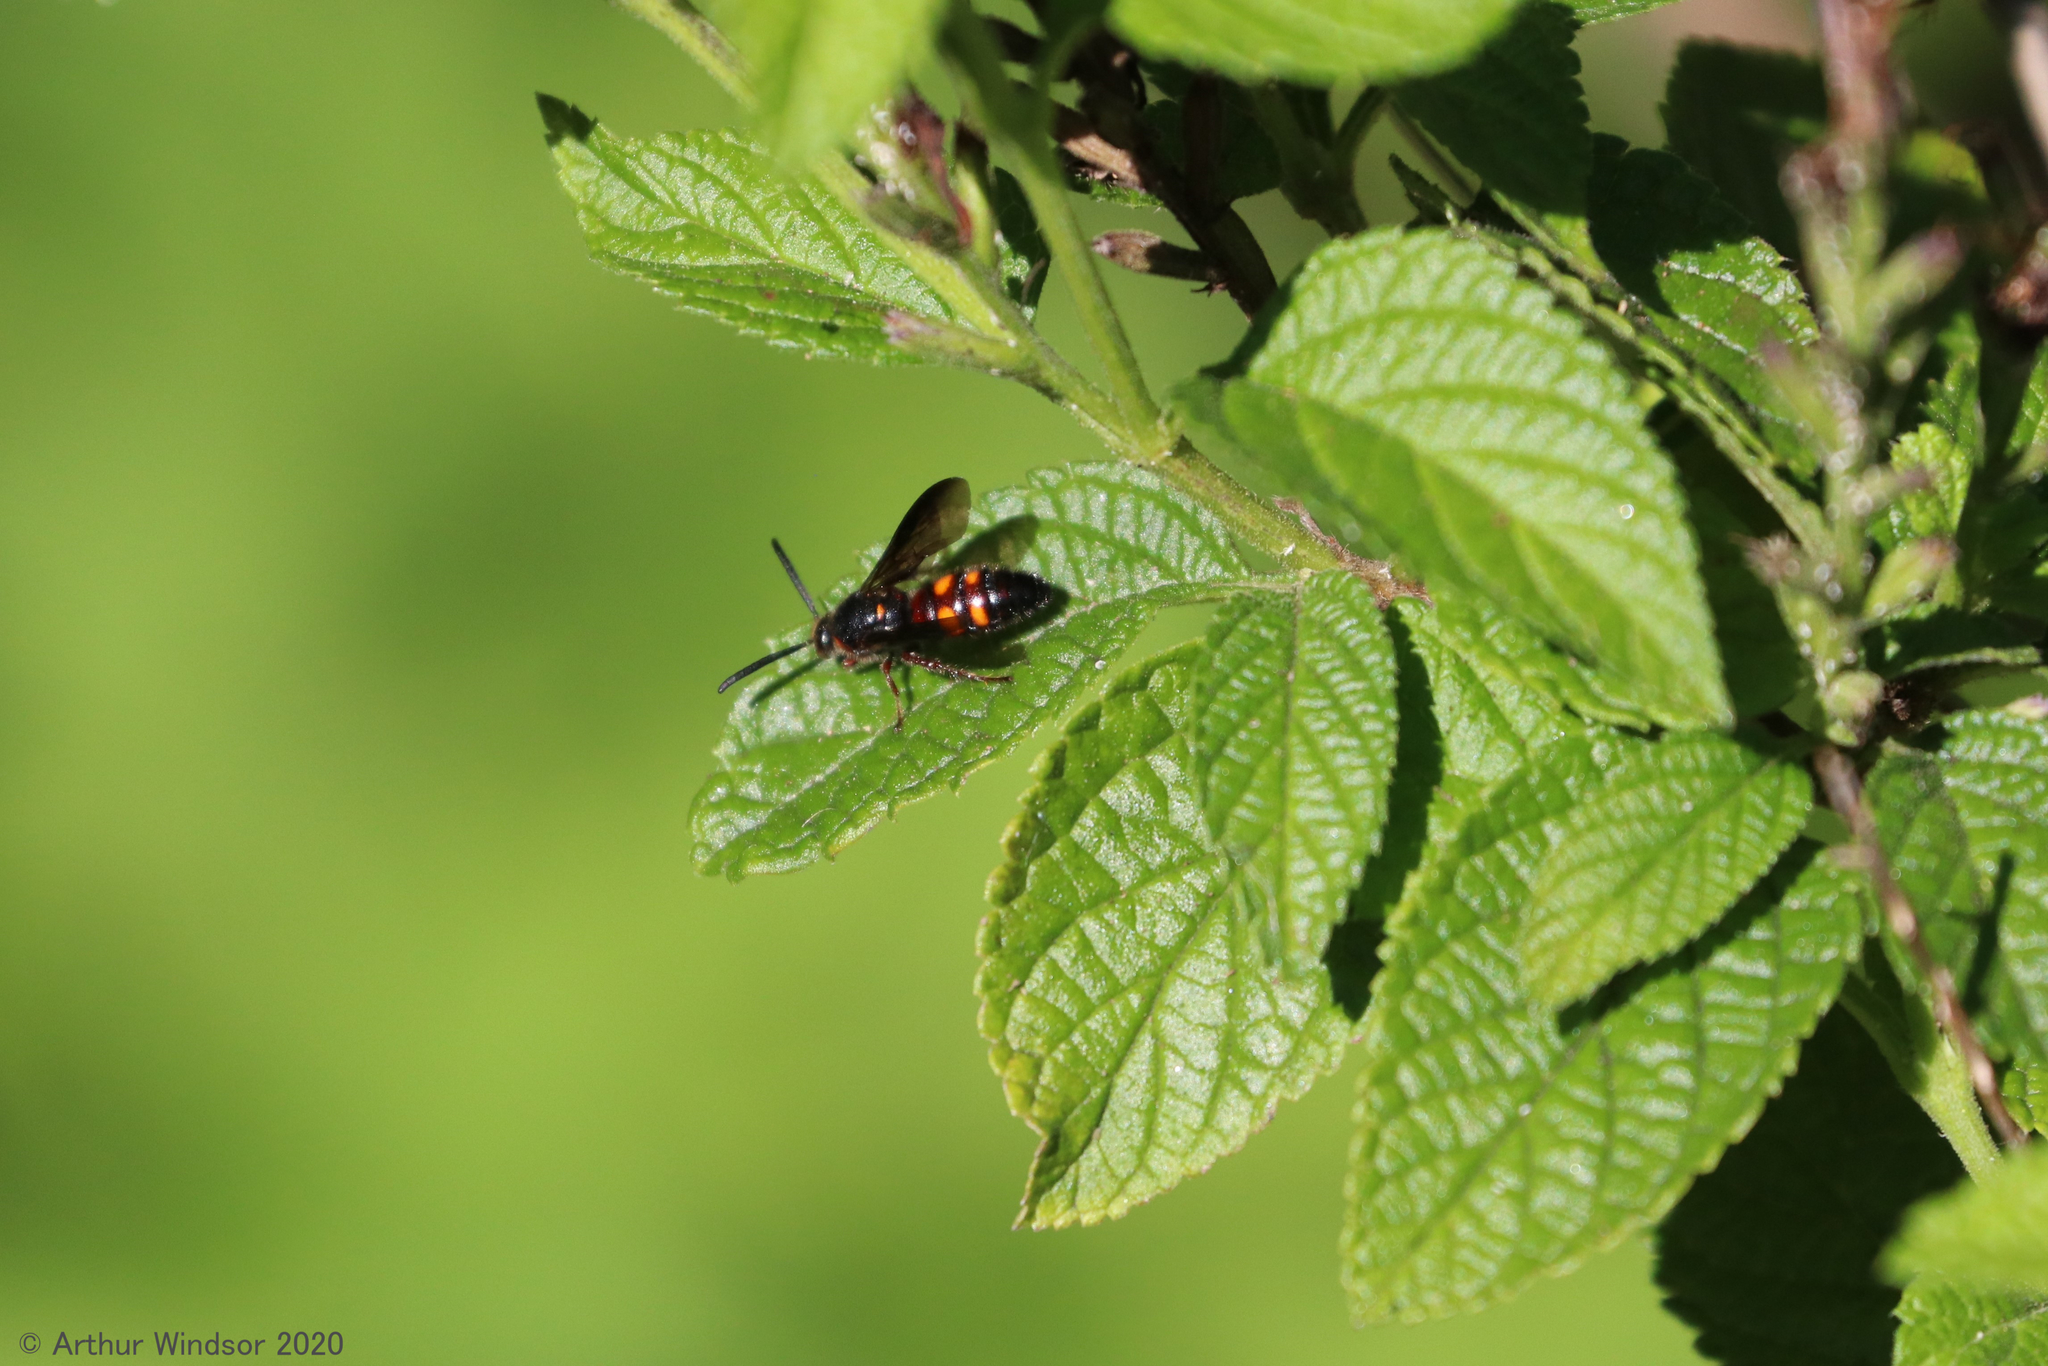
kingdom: Animalia
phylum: Arthropoda
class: Insecta
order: Hymenoptera
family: Scoliidae
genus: Scolia
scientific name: Scolia nobilitata
